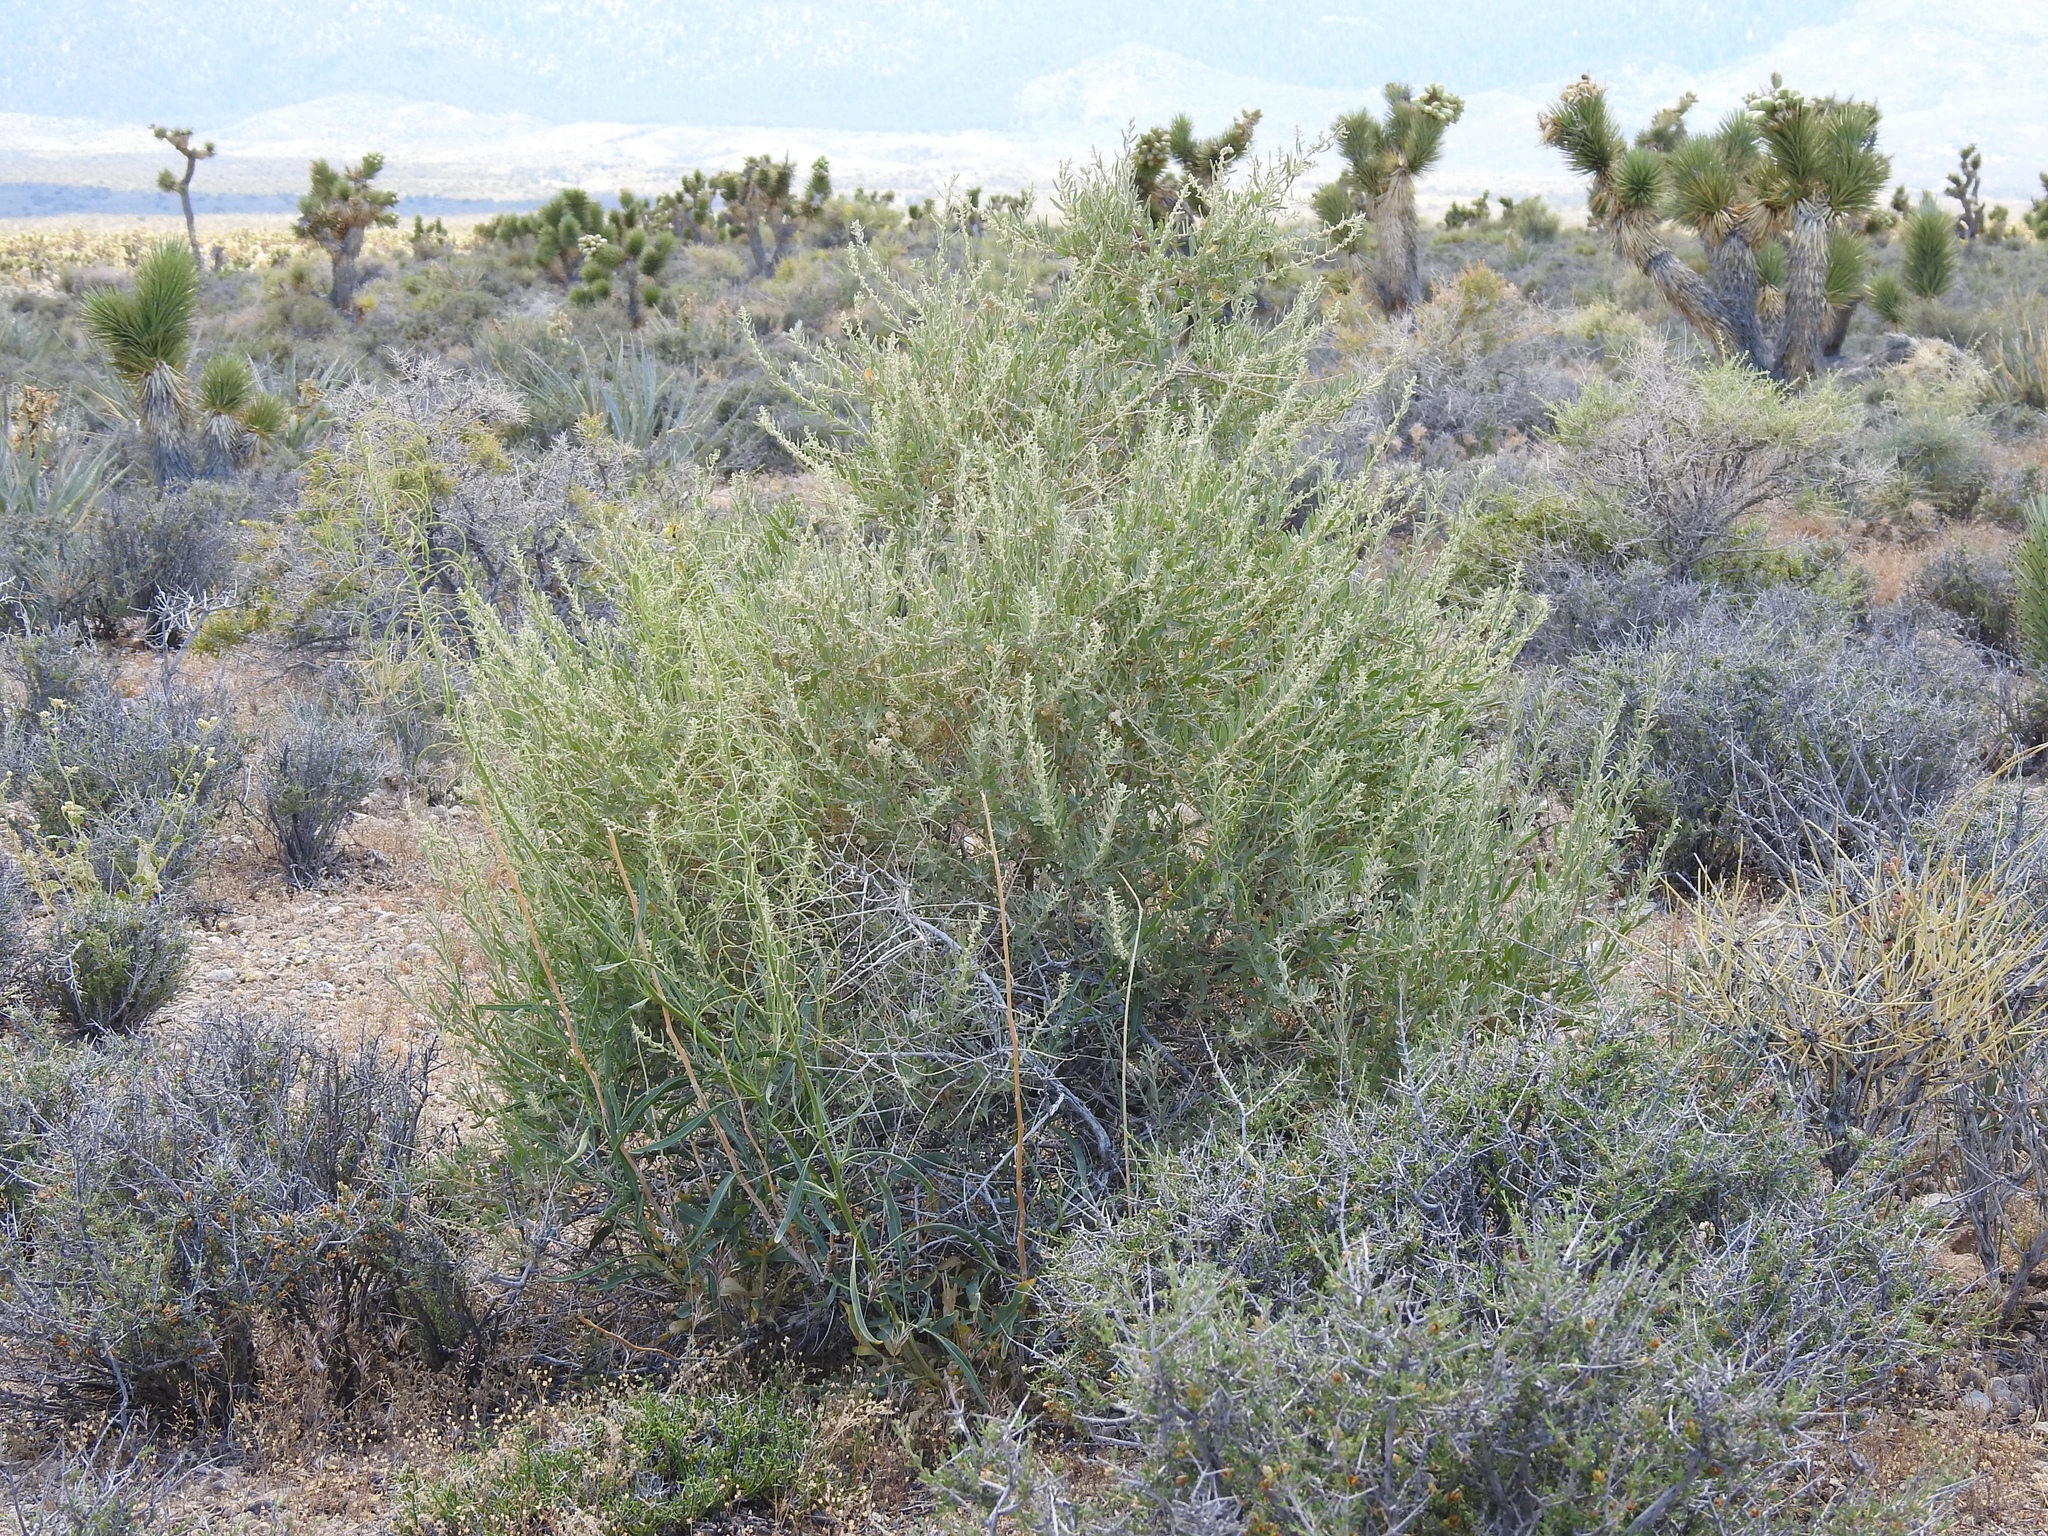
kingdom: Plantae
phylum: Tracheophyta
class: Magnoliopsida
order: Caryophyllales
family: Amaranthaceae
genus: Atriplex
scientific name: Atriplex canescens
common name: Four-wing saltbush
